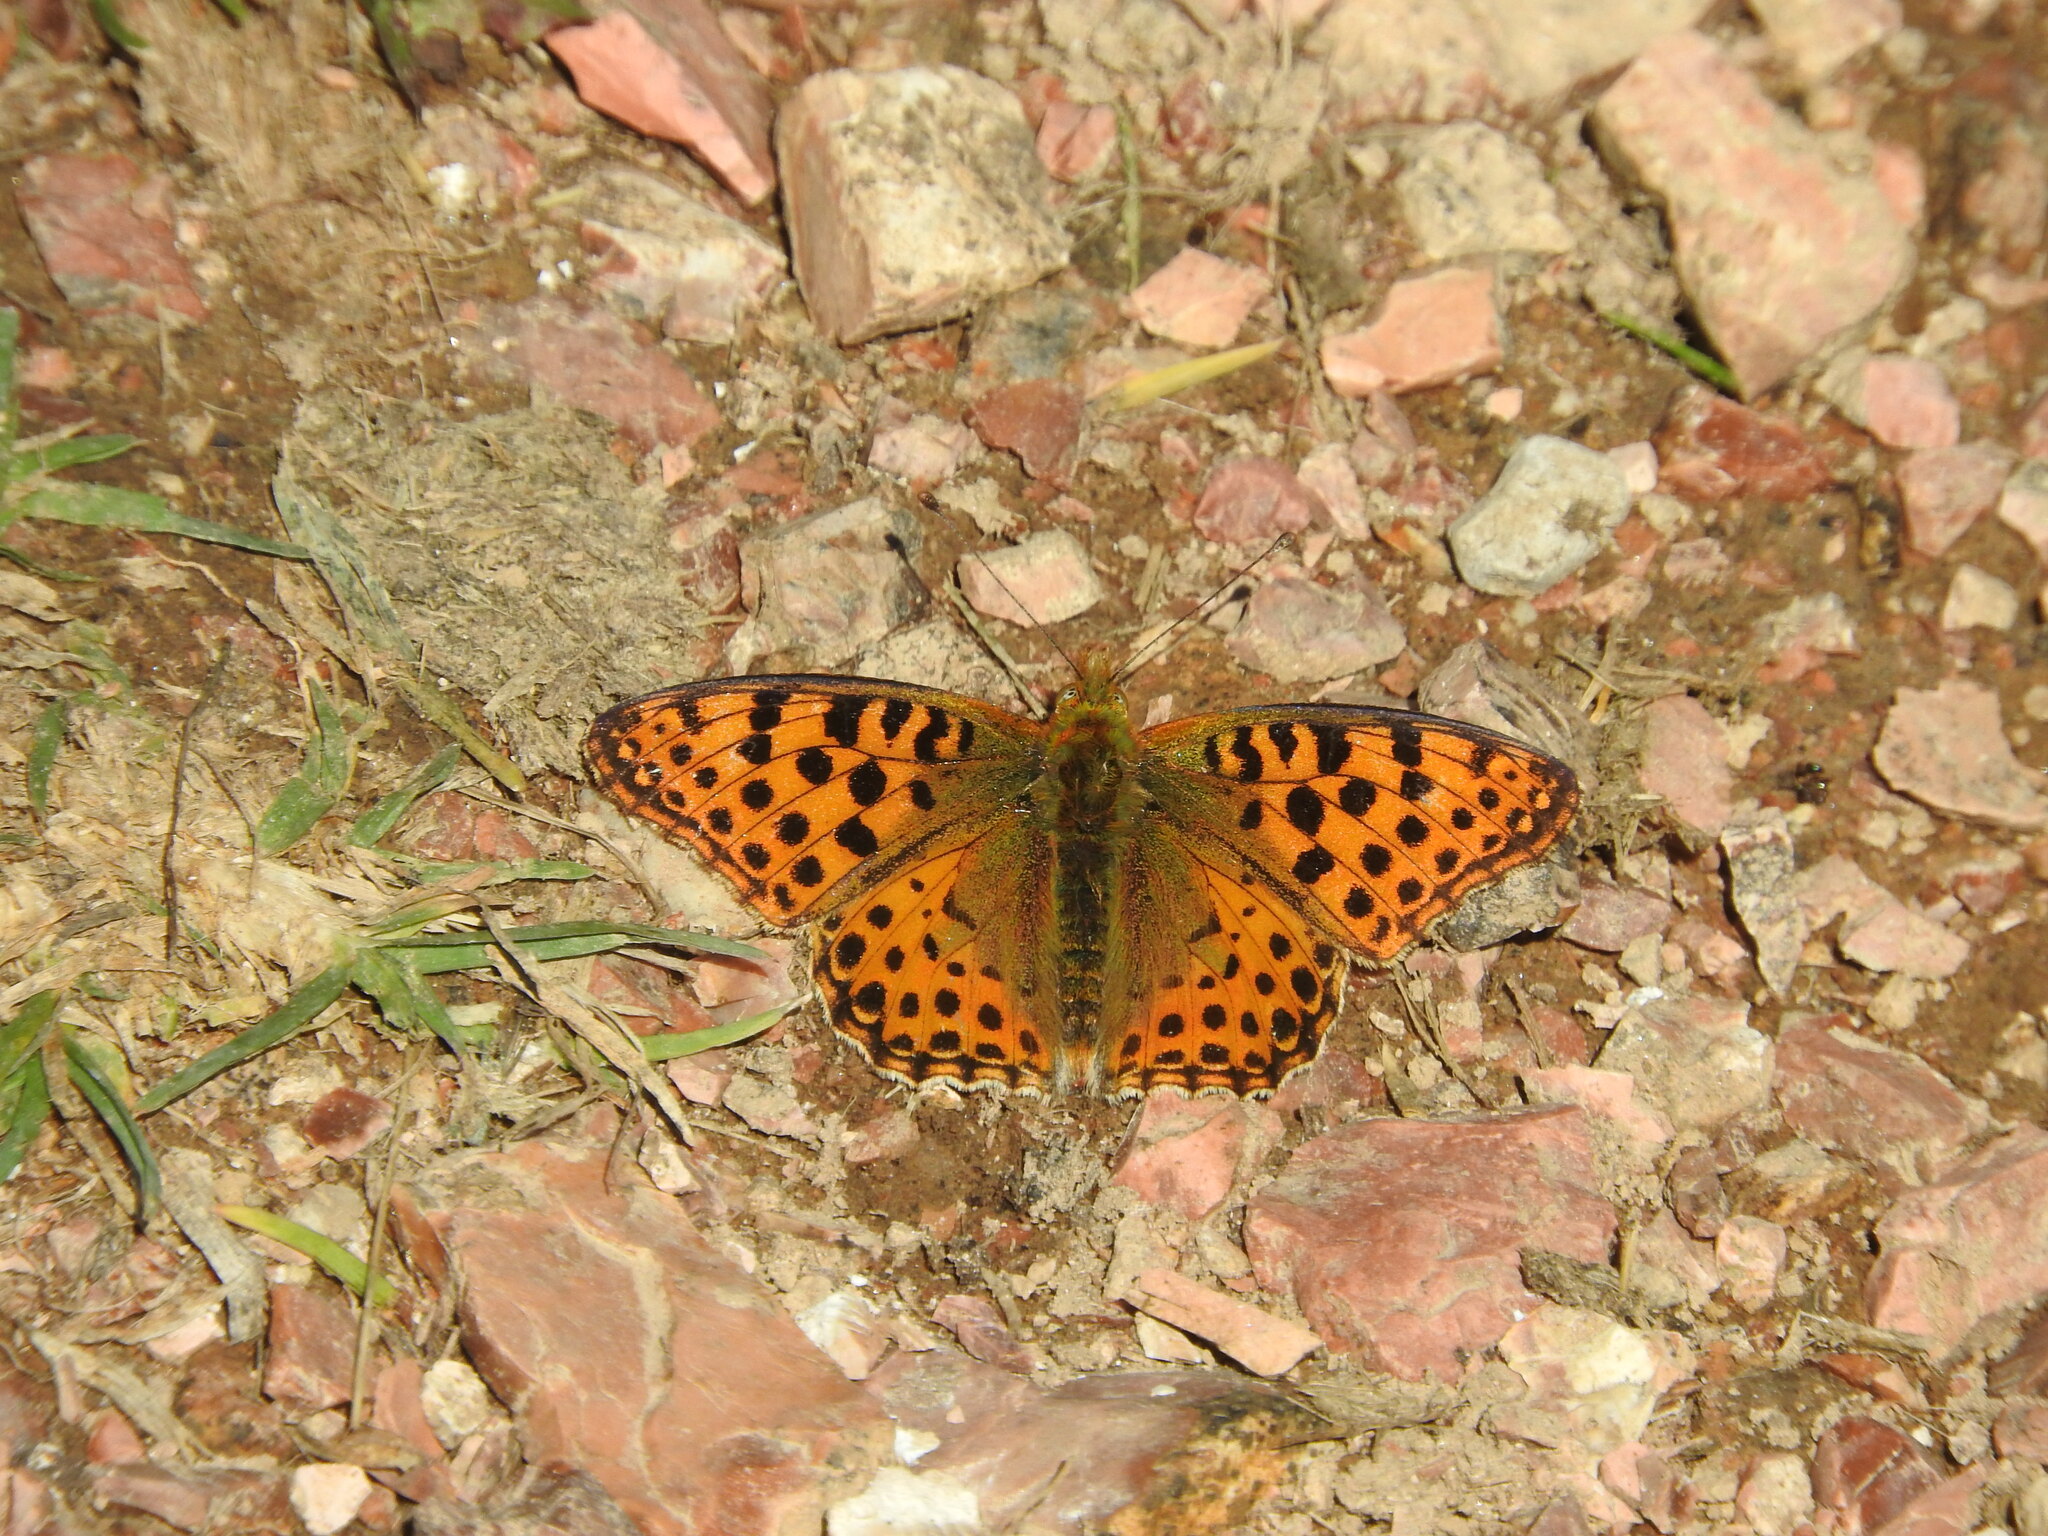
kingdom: Animalia
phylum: Arthropoda
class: Insecta
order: Lepidoptera
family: Nymphalidae
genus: Issoria
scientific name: Issoria lathonia
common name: Queen of spain fritillary
